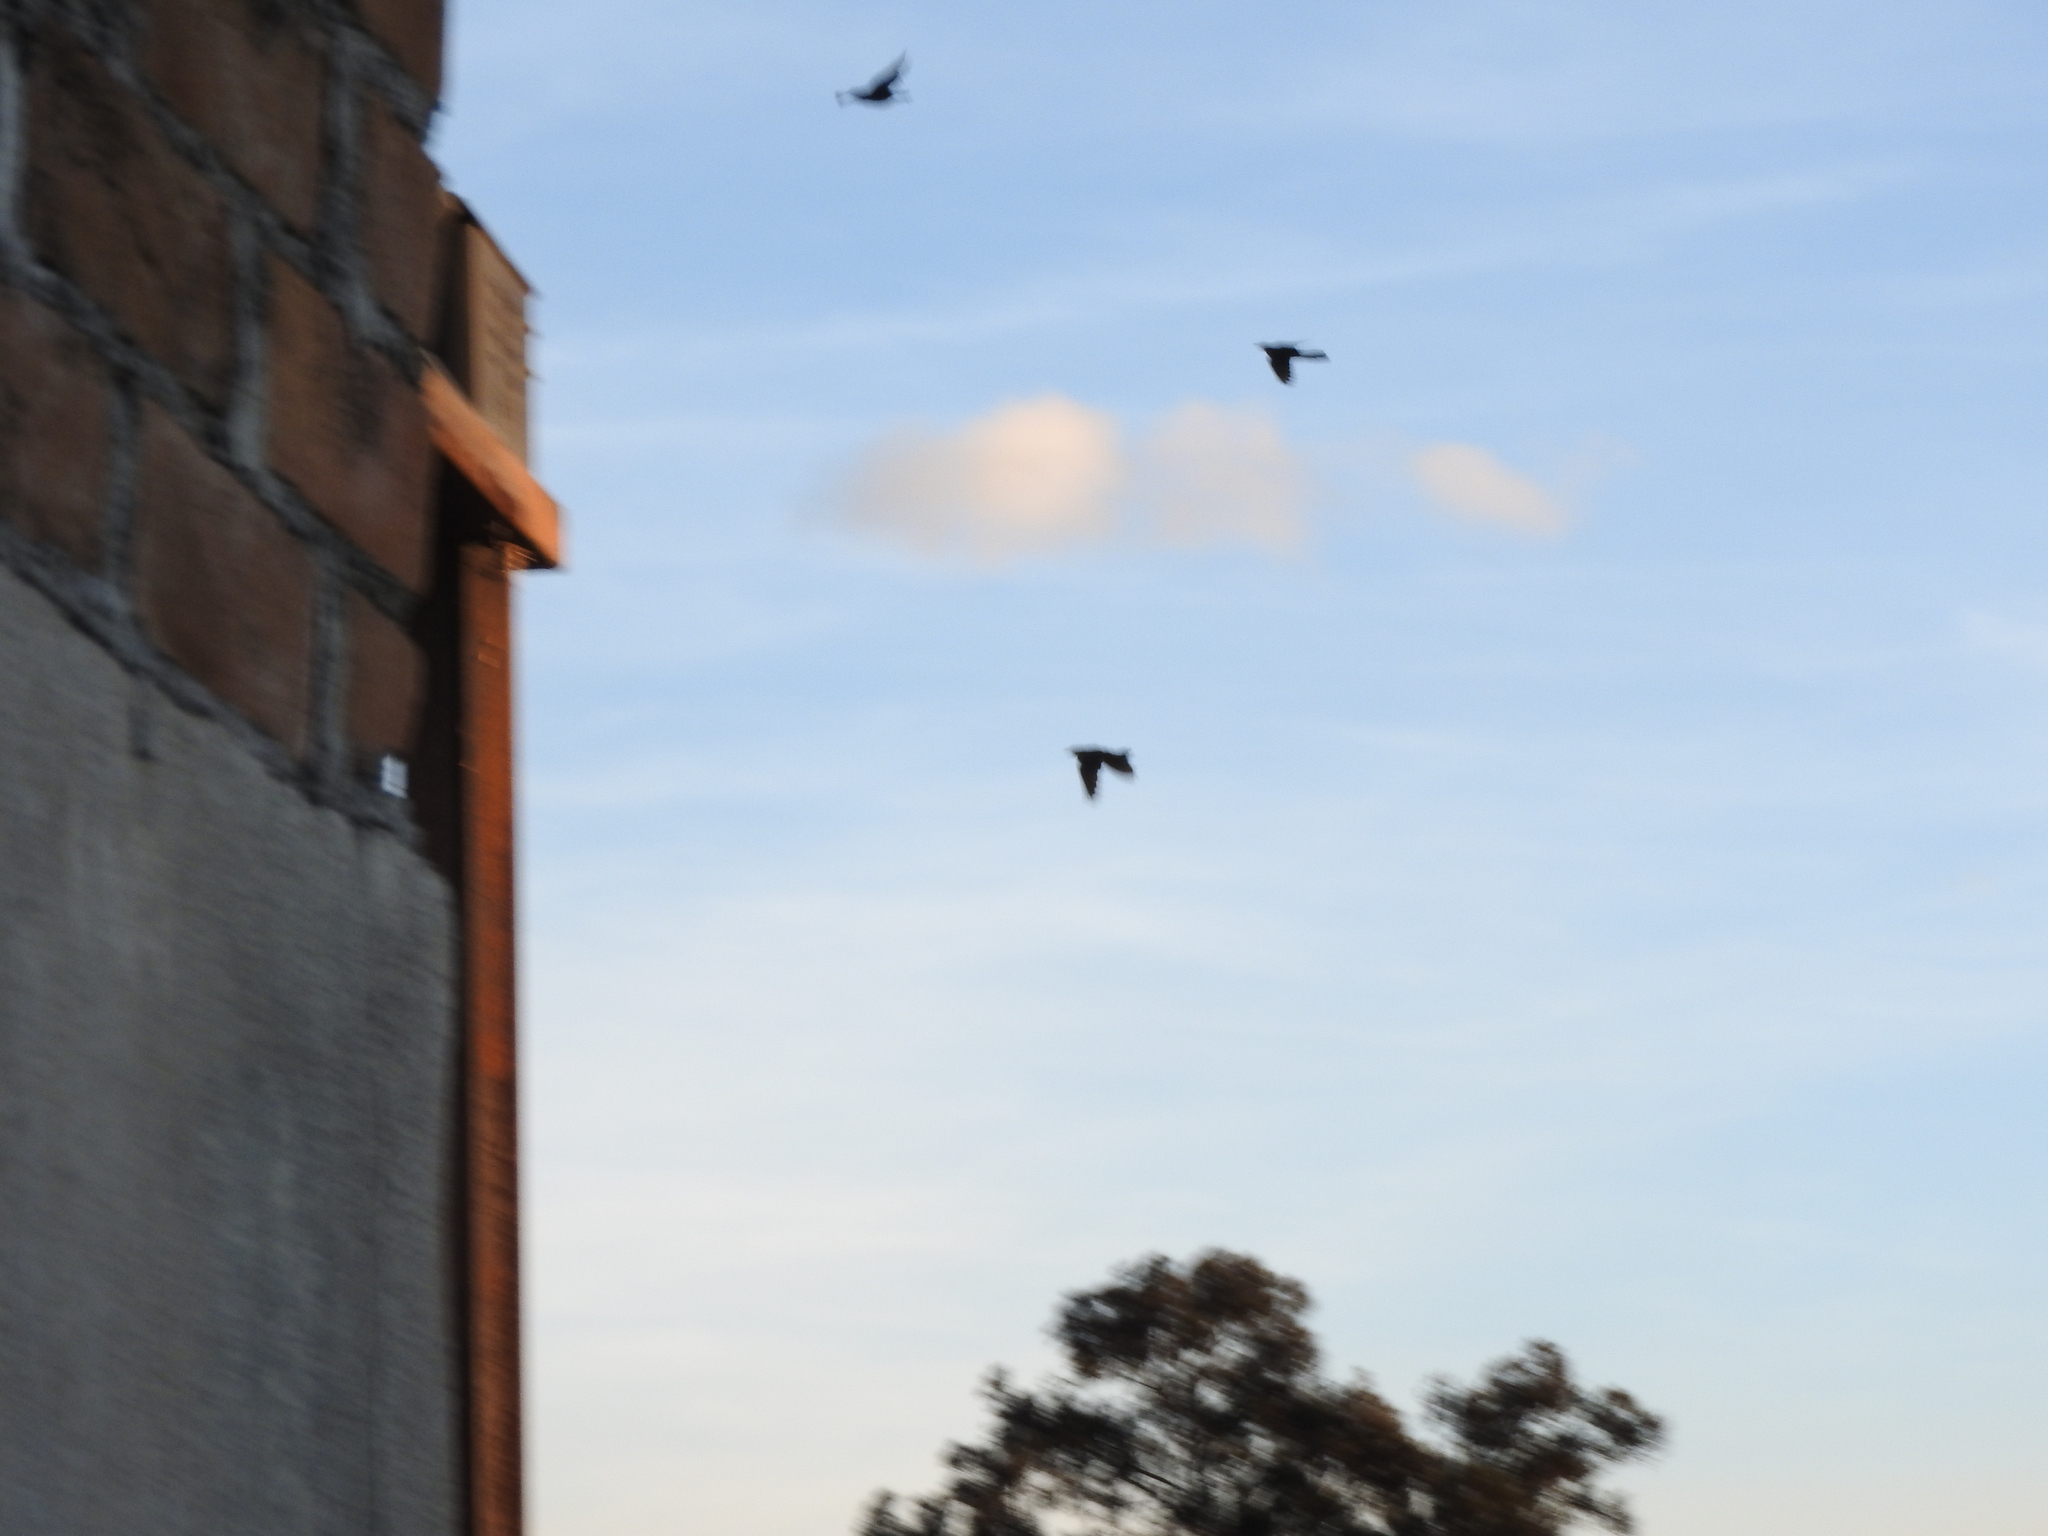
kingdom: Animalia
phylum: Chordata
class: Aves
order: Passeriformes
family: Icteridae
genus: Quiscalus
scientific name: Quiscalus mexicanus
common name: Great-tailed grackle
